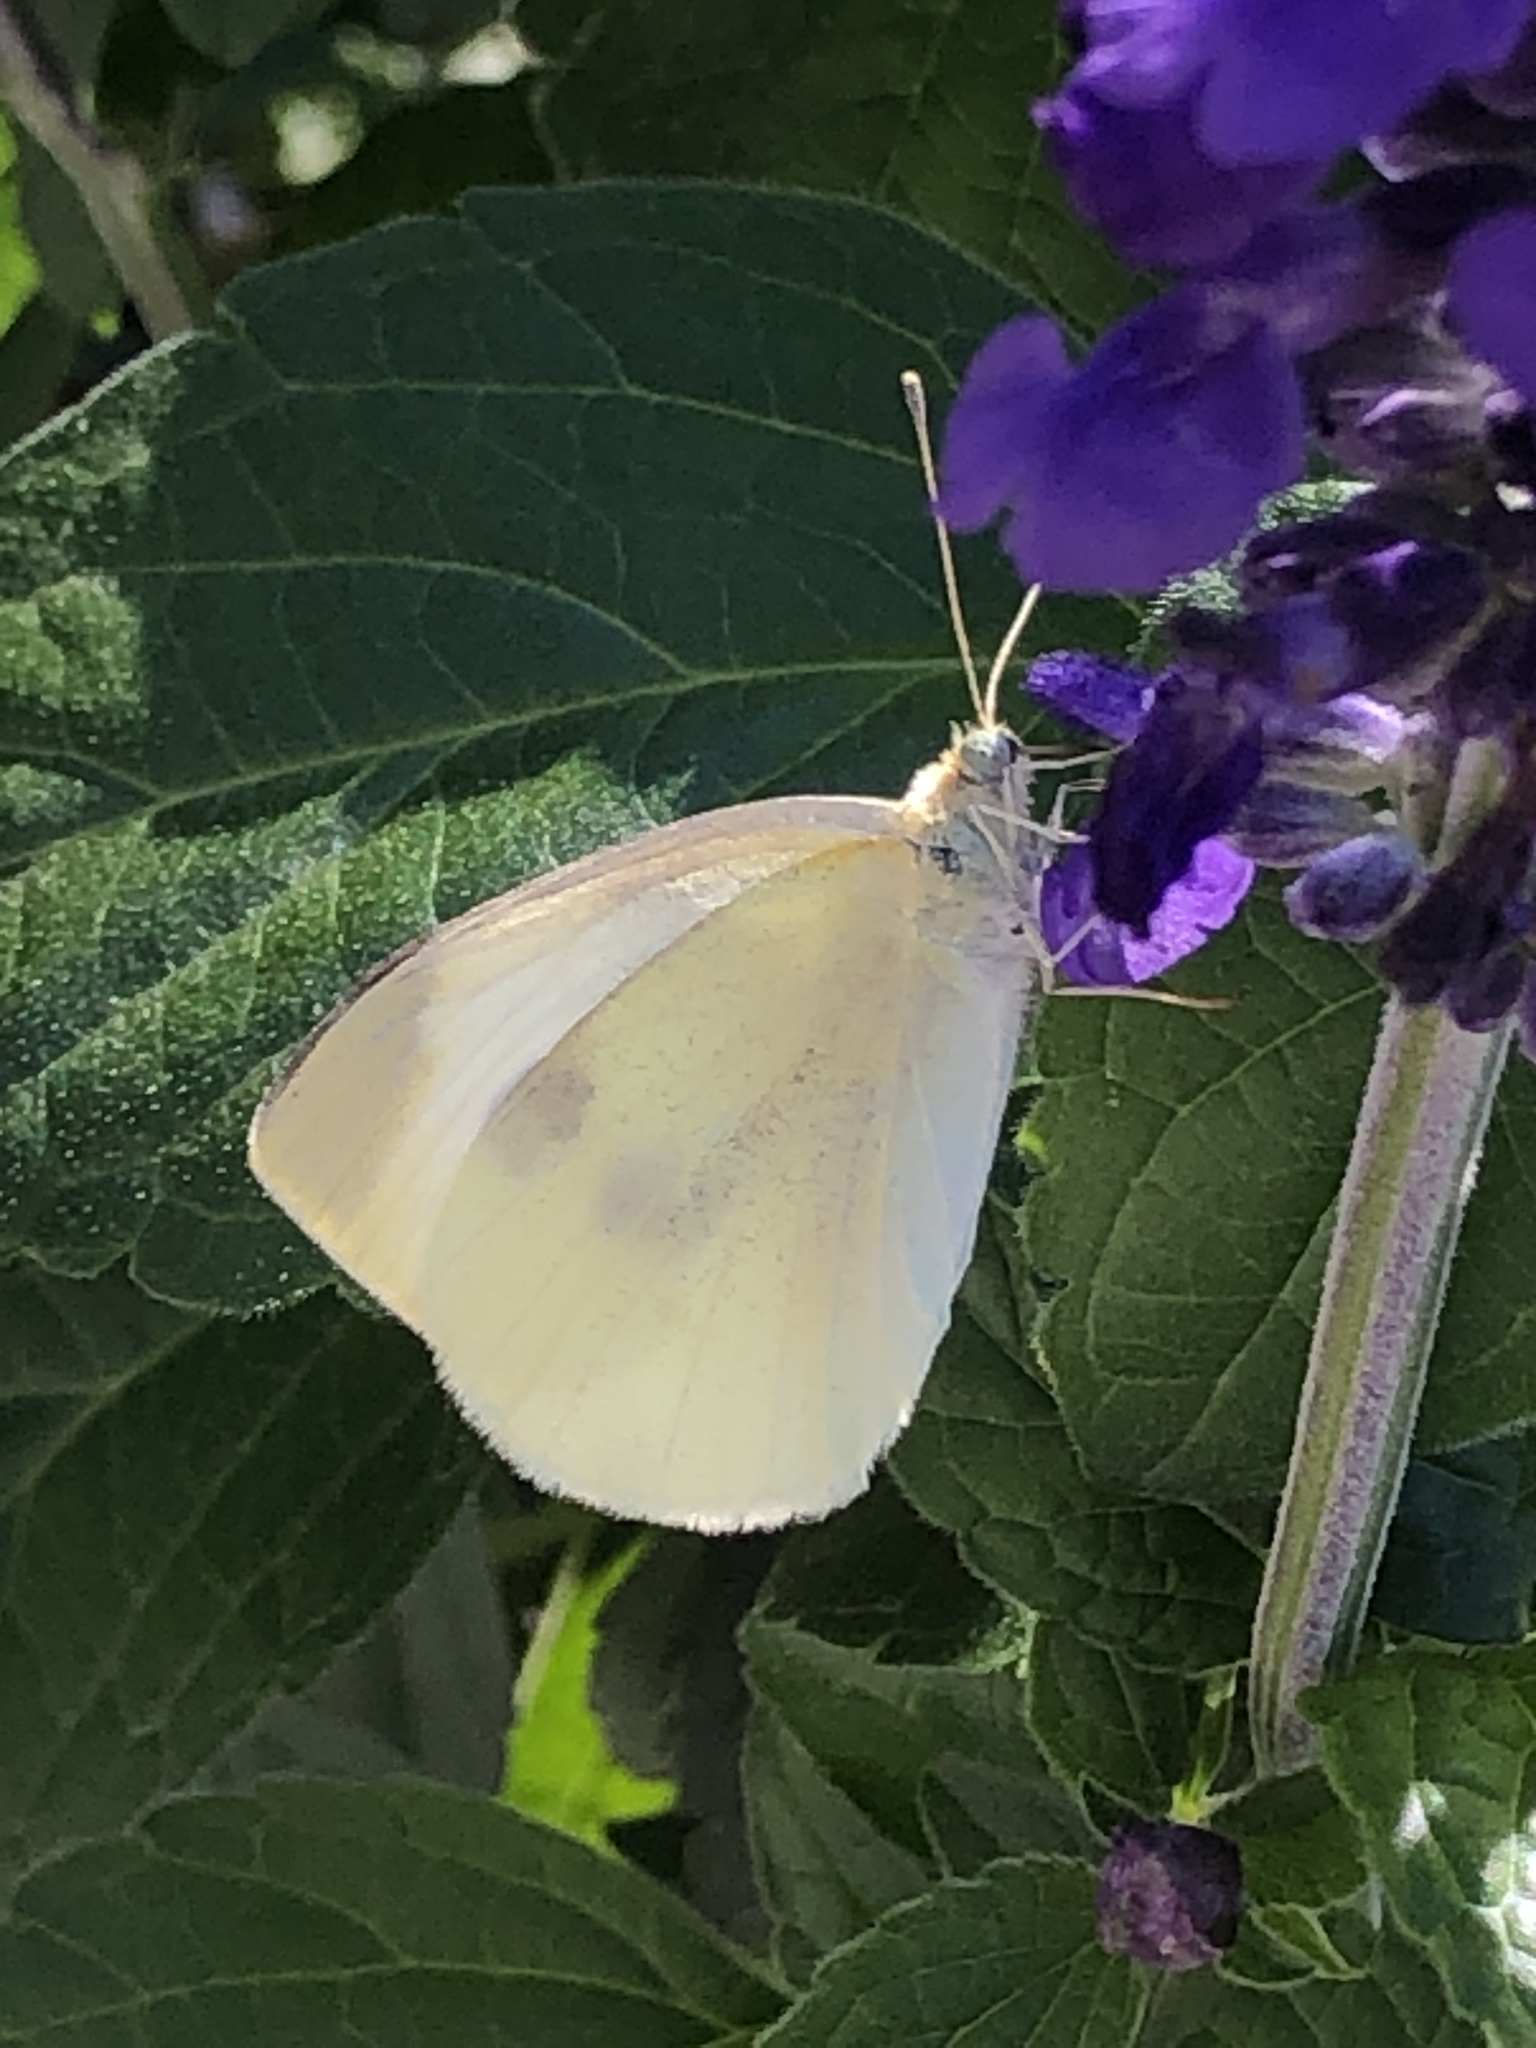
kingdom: Animalia
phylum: Arthropoda
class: Insecta
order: Lepidoptera
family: Pieridae
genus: Pieris
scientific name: Pieris rapae
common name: Small white
